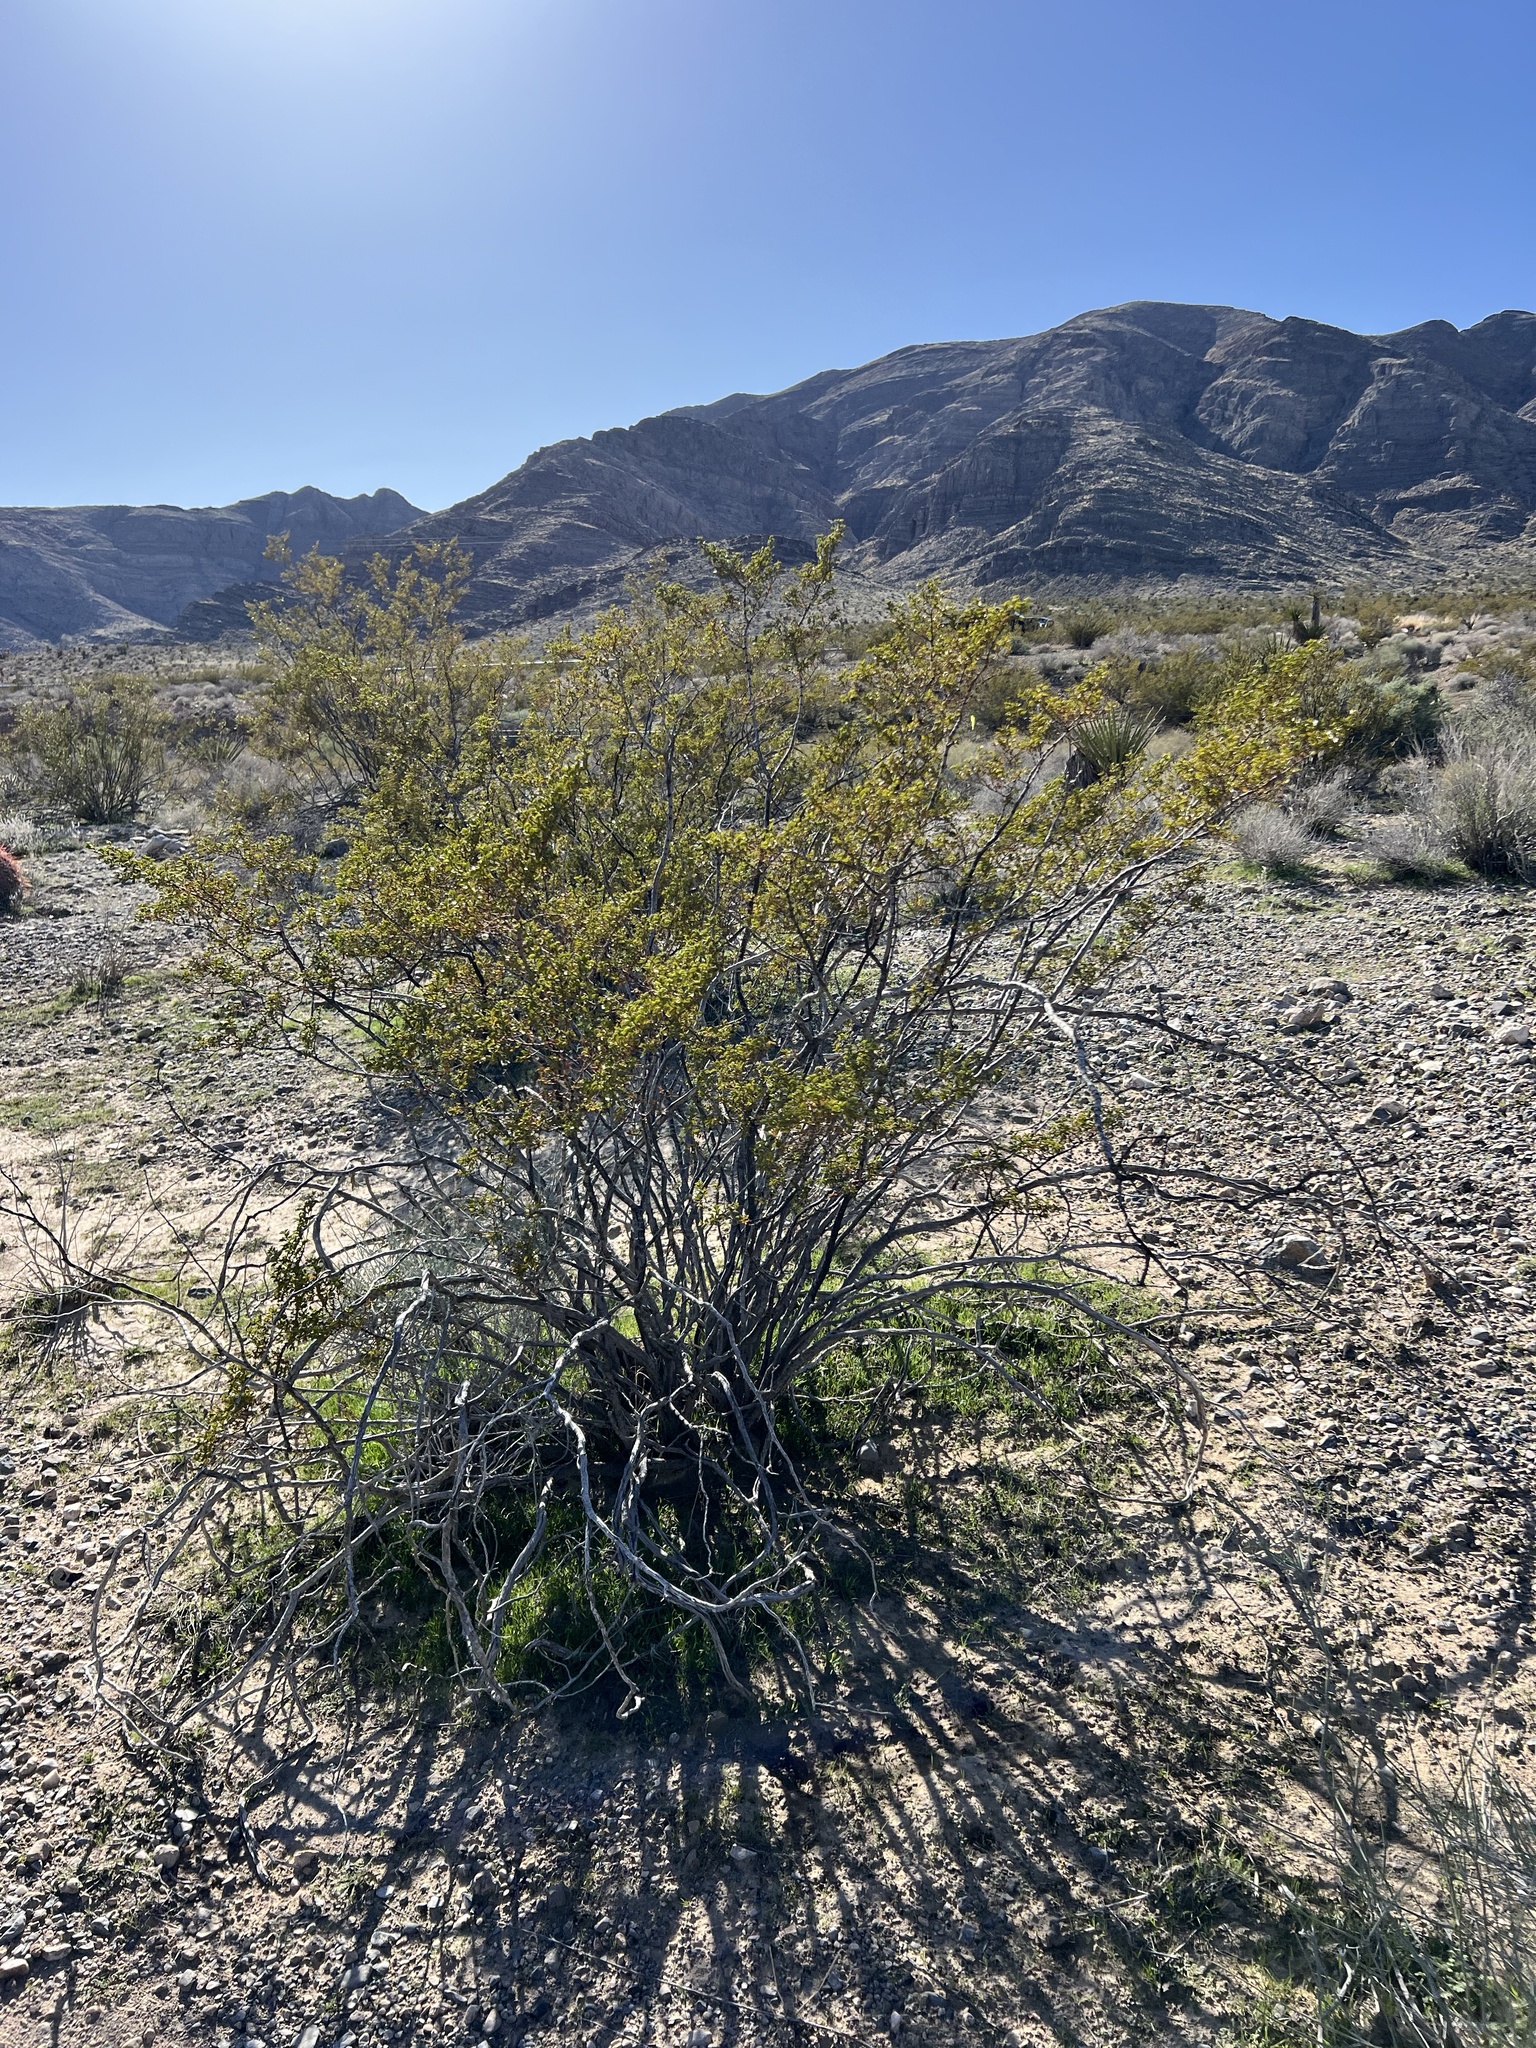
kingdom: Plantae
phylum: Tracheophyta
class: Magnoliopsida
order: Zygophyllales
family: Zygophyllaceae
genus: Larrea
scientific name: Larrea tridentata
